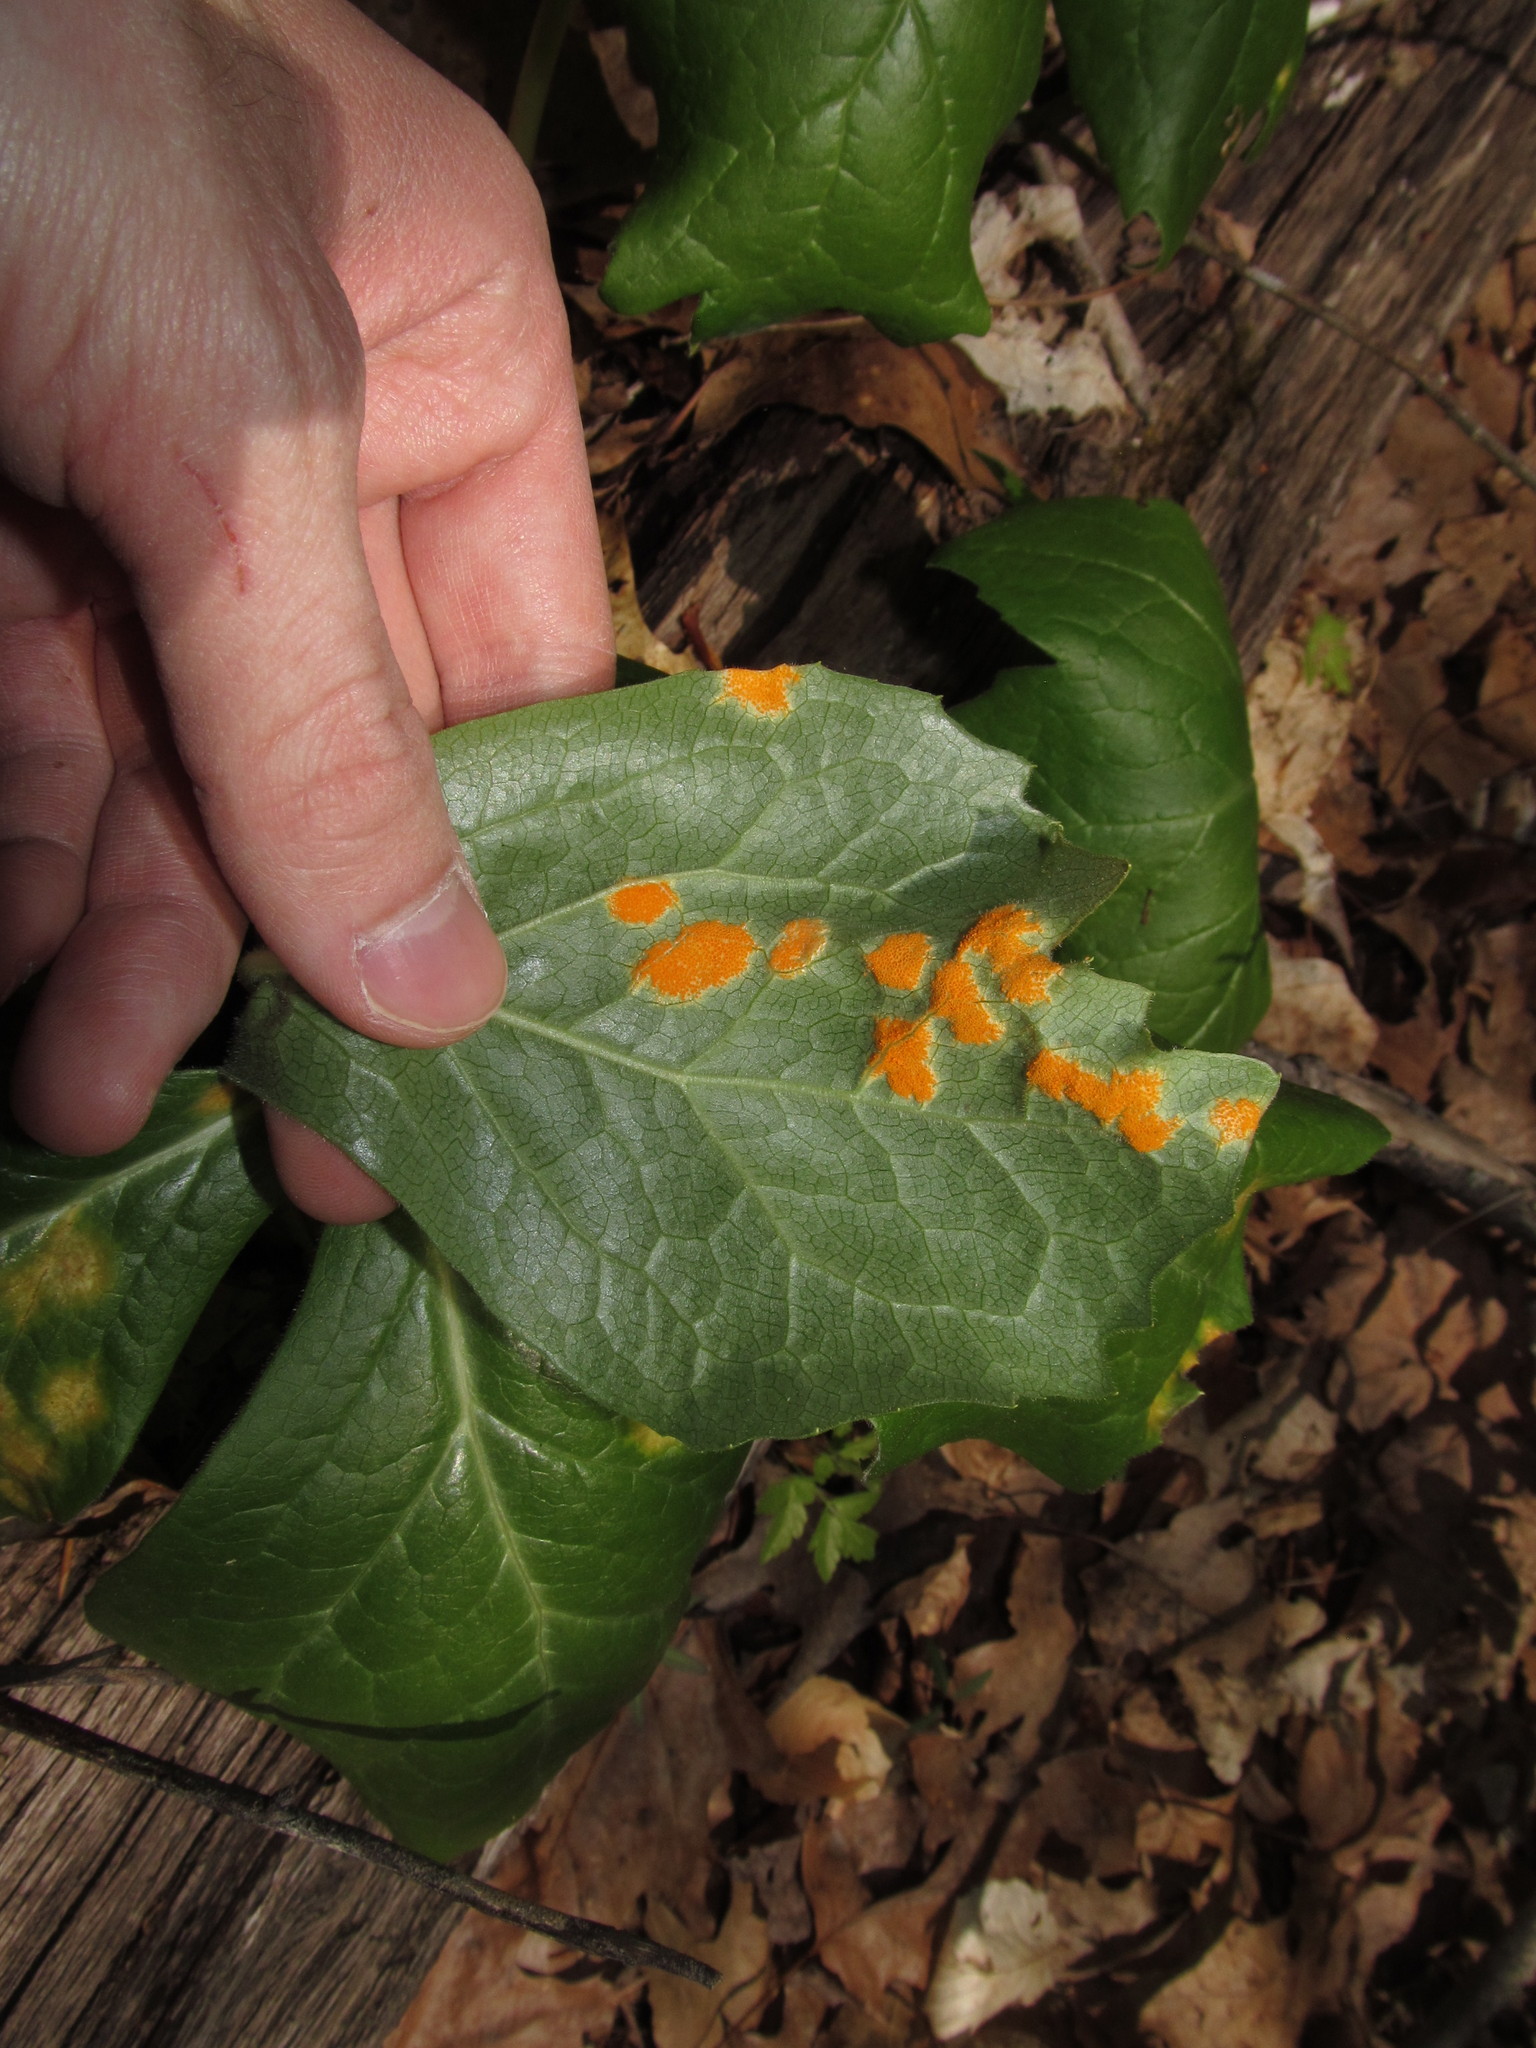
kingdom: Plantae
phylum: Tracheophyta
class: Magnoliopsida
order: Ranunculales
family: Berberidaceae
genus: Podophyllum
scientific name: Podophyllum peltatum
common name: Wild mandrake
